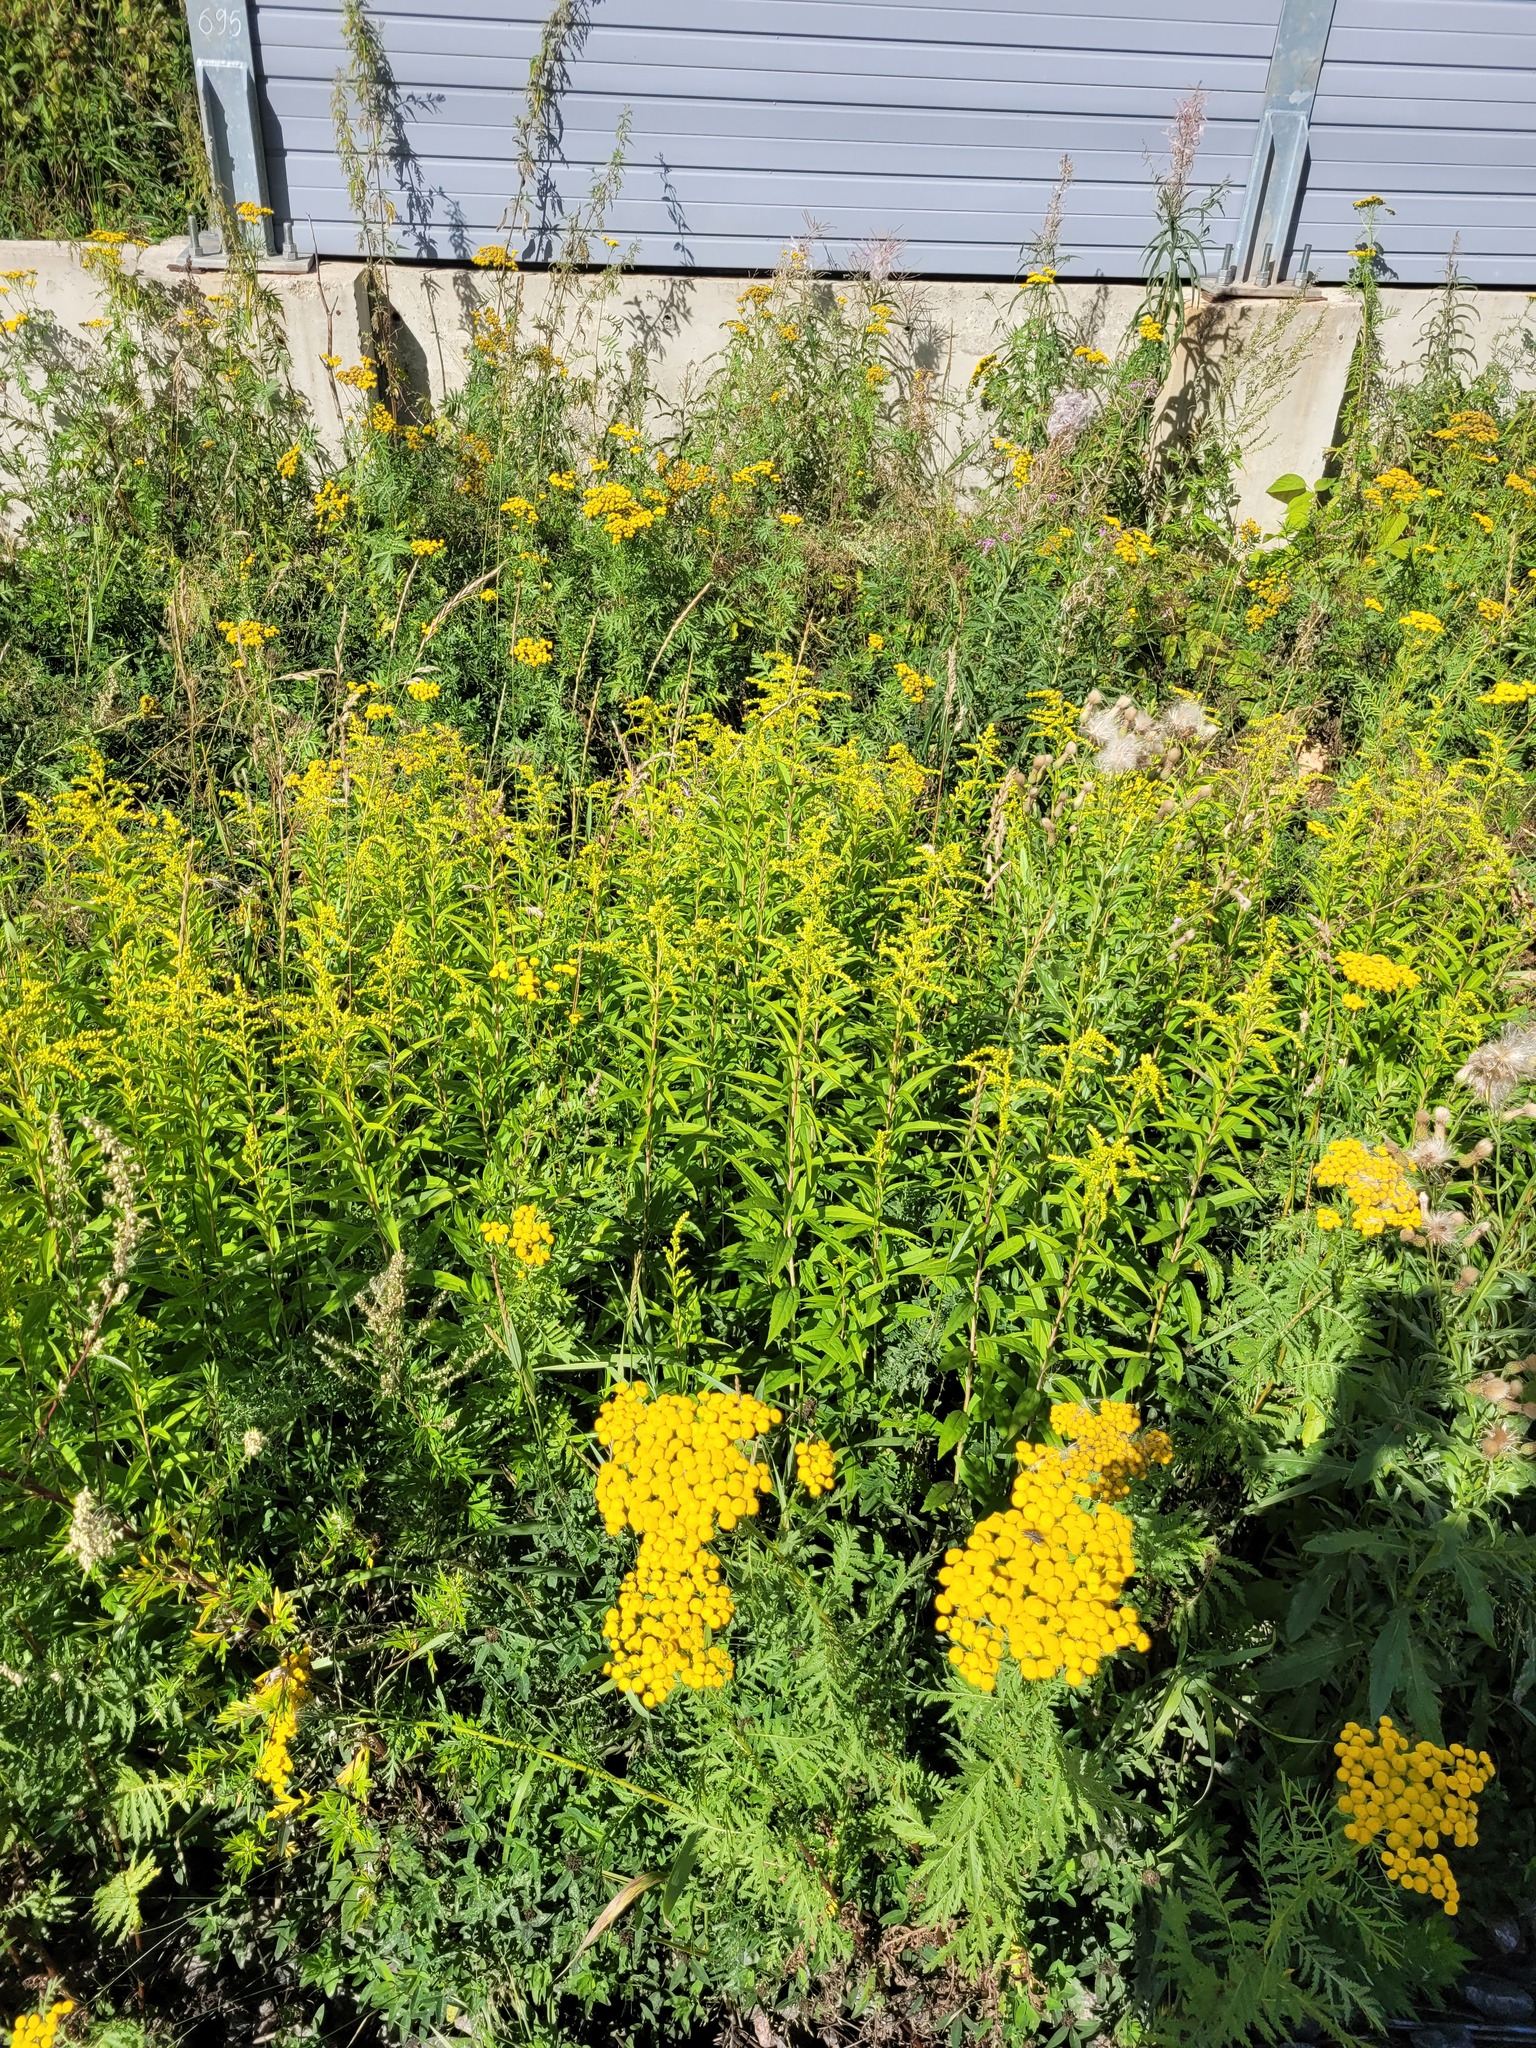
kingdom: Plantae
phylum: Tracheophyta
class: Magnoliopsida
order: Asterales
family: Asteraceae
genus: Solidago
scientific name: Solidago gigantea
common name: Giant goldenrod
